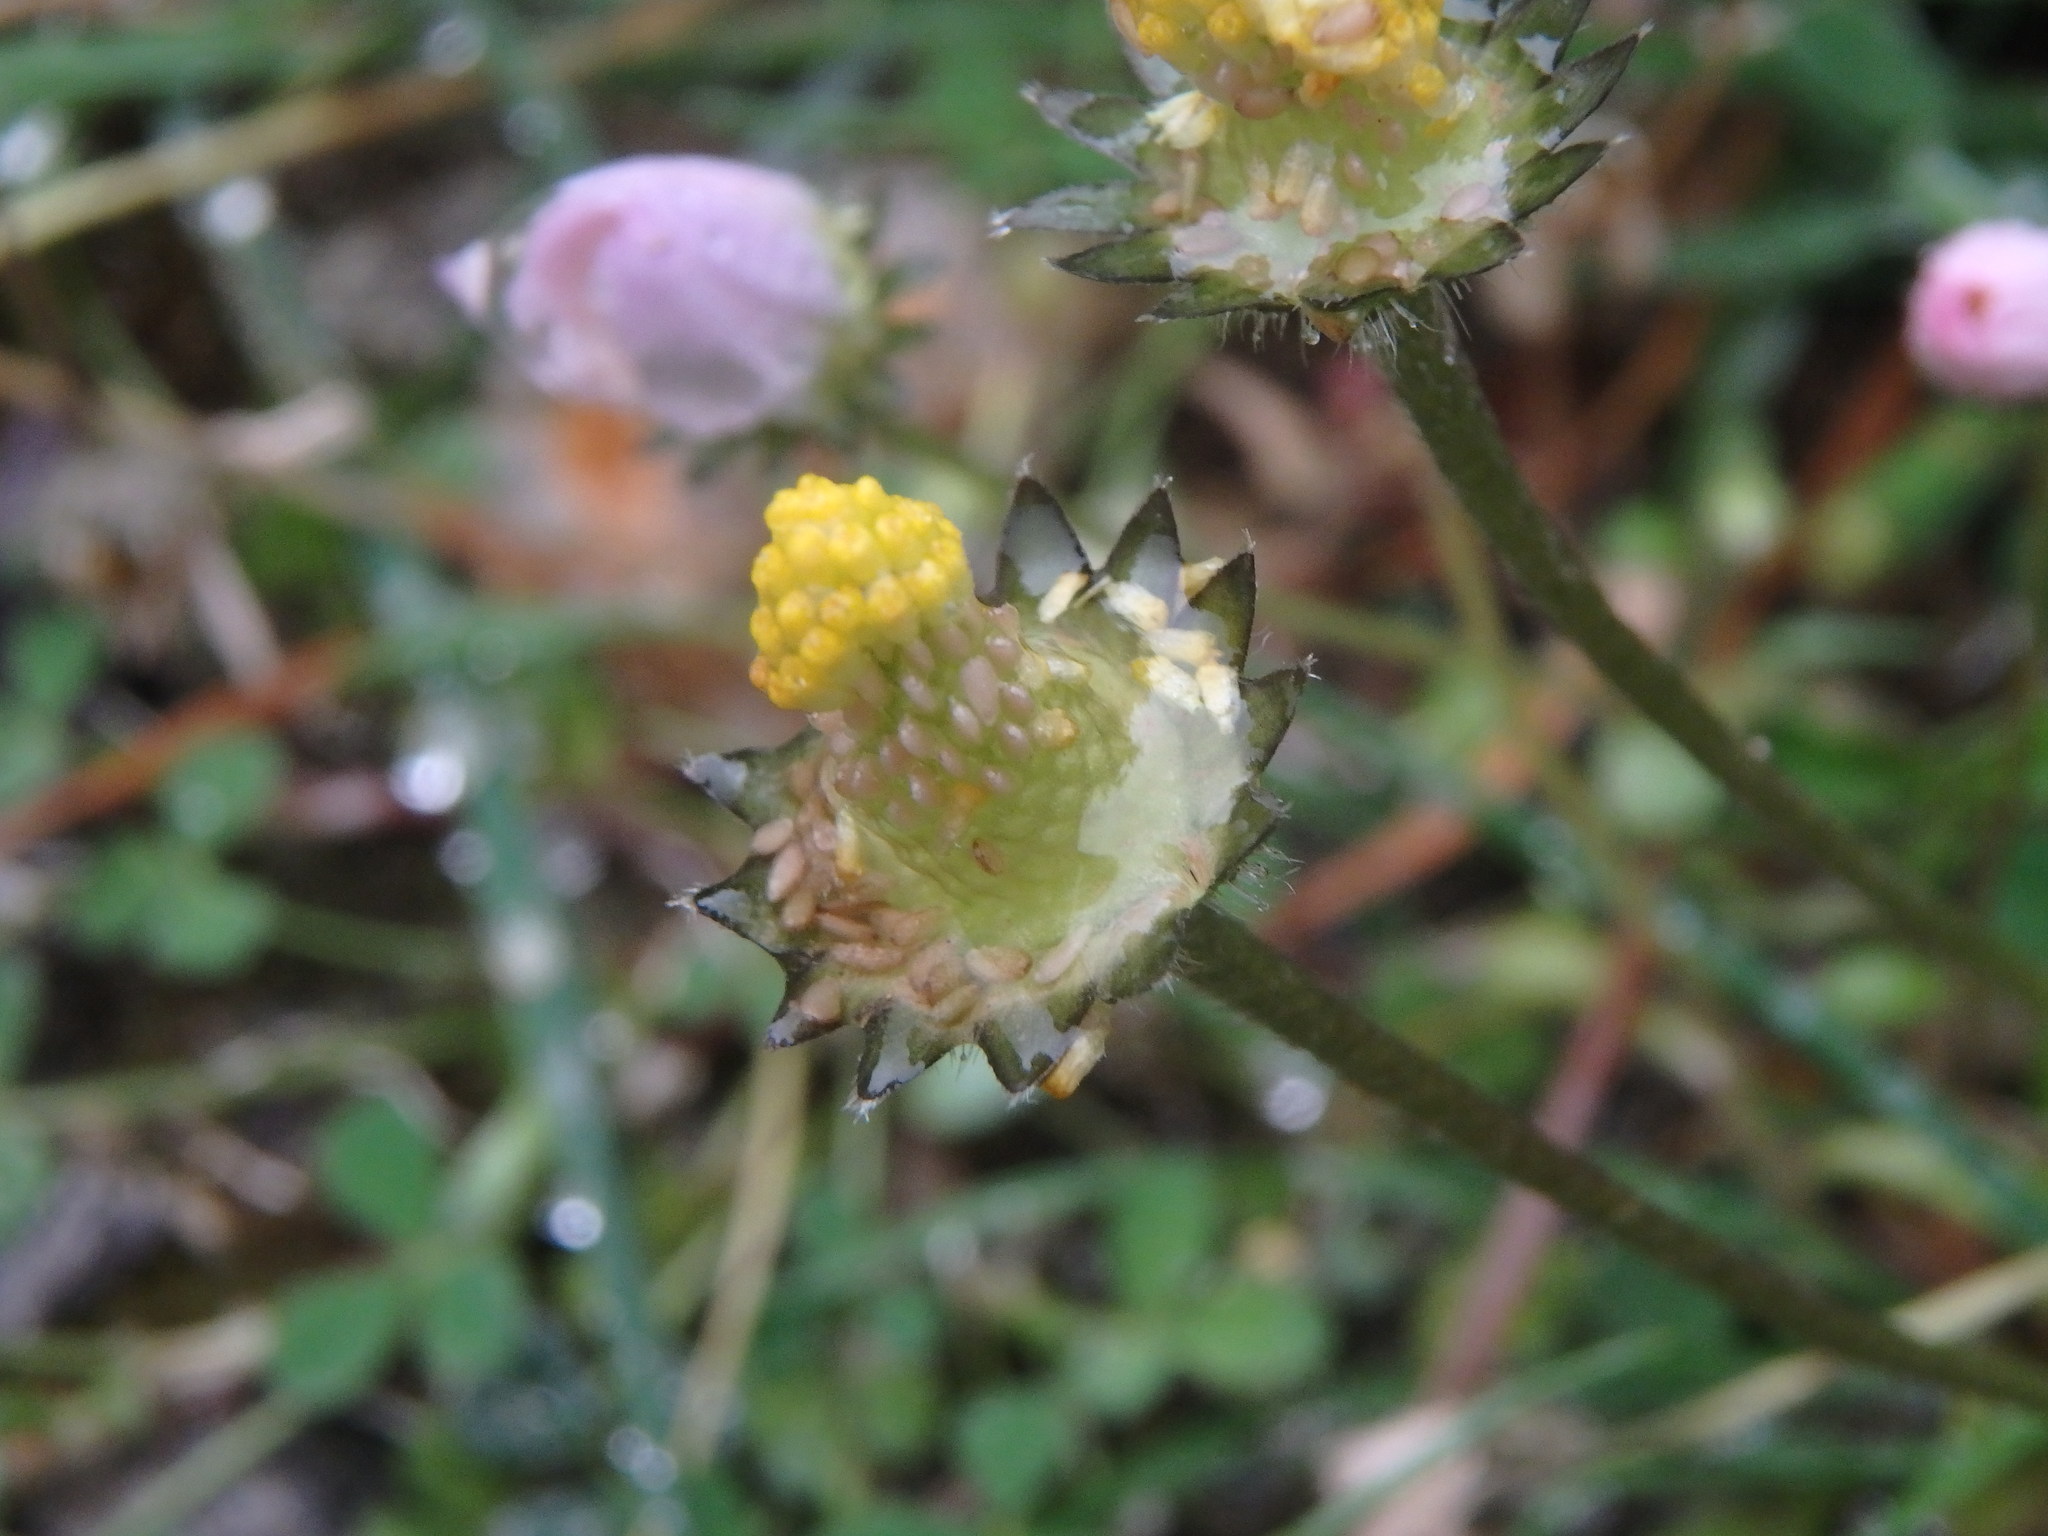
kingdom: Plantae
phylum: Tracheophyta
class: Magnoliopsida
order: Asterales
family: Asteraceae
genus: Bellis
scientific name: Bellis annua
